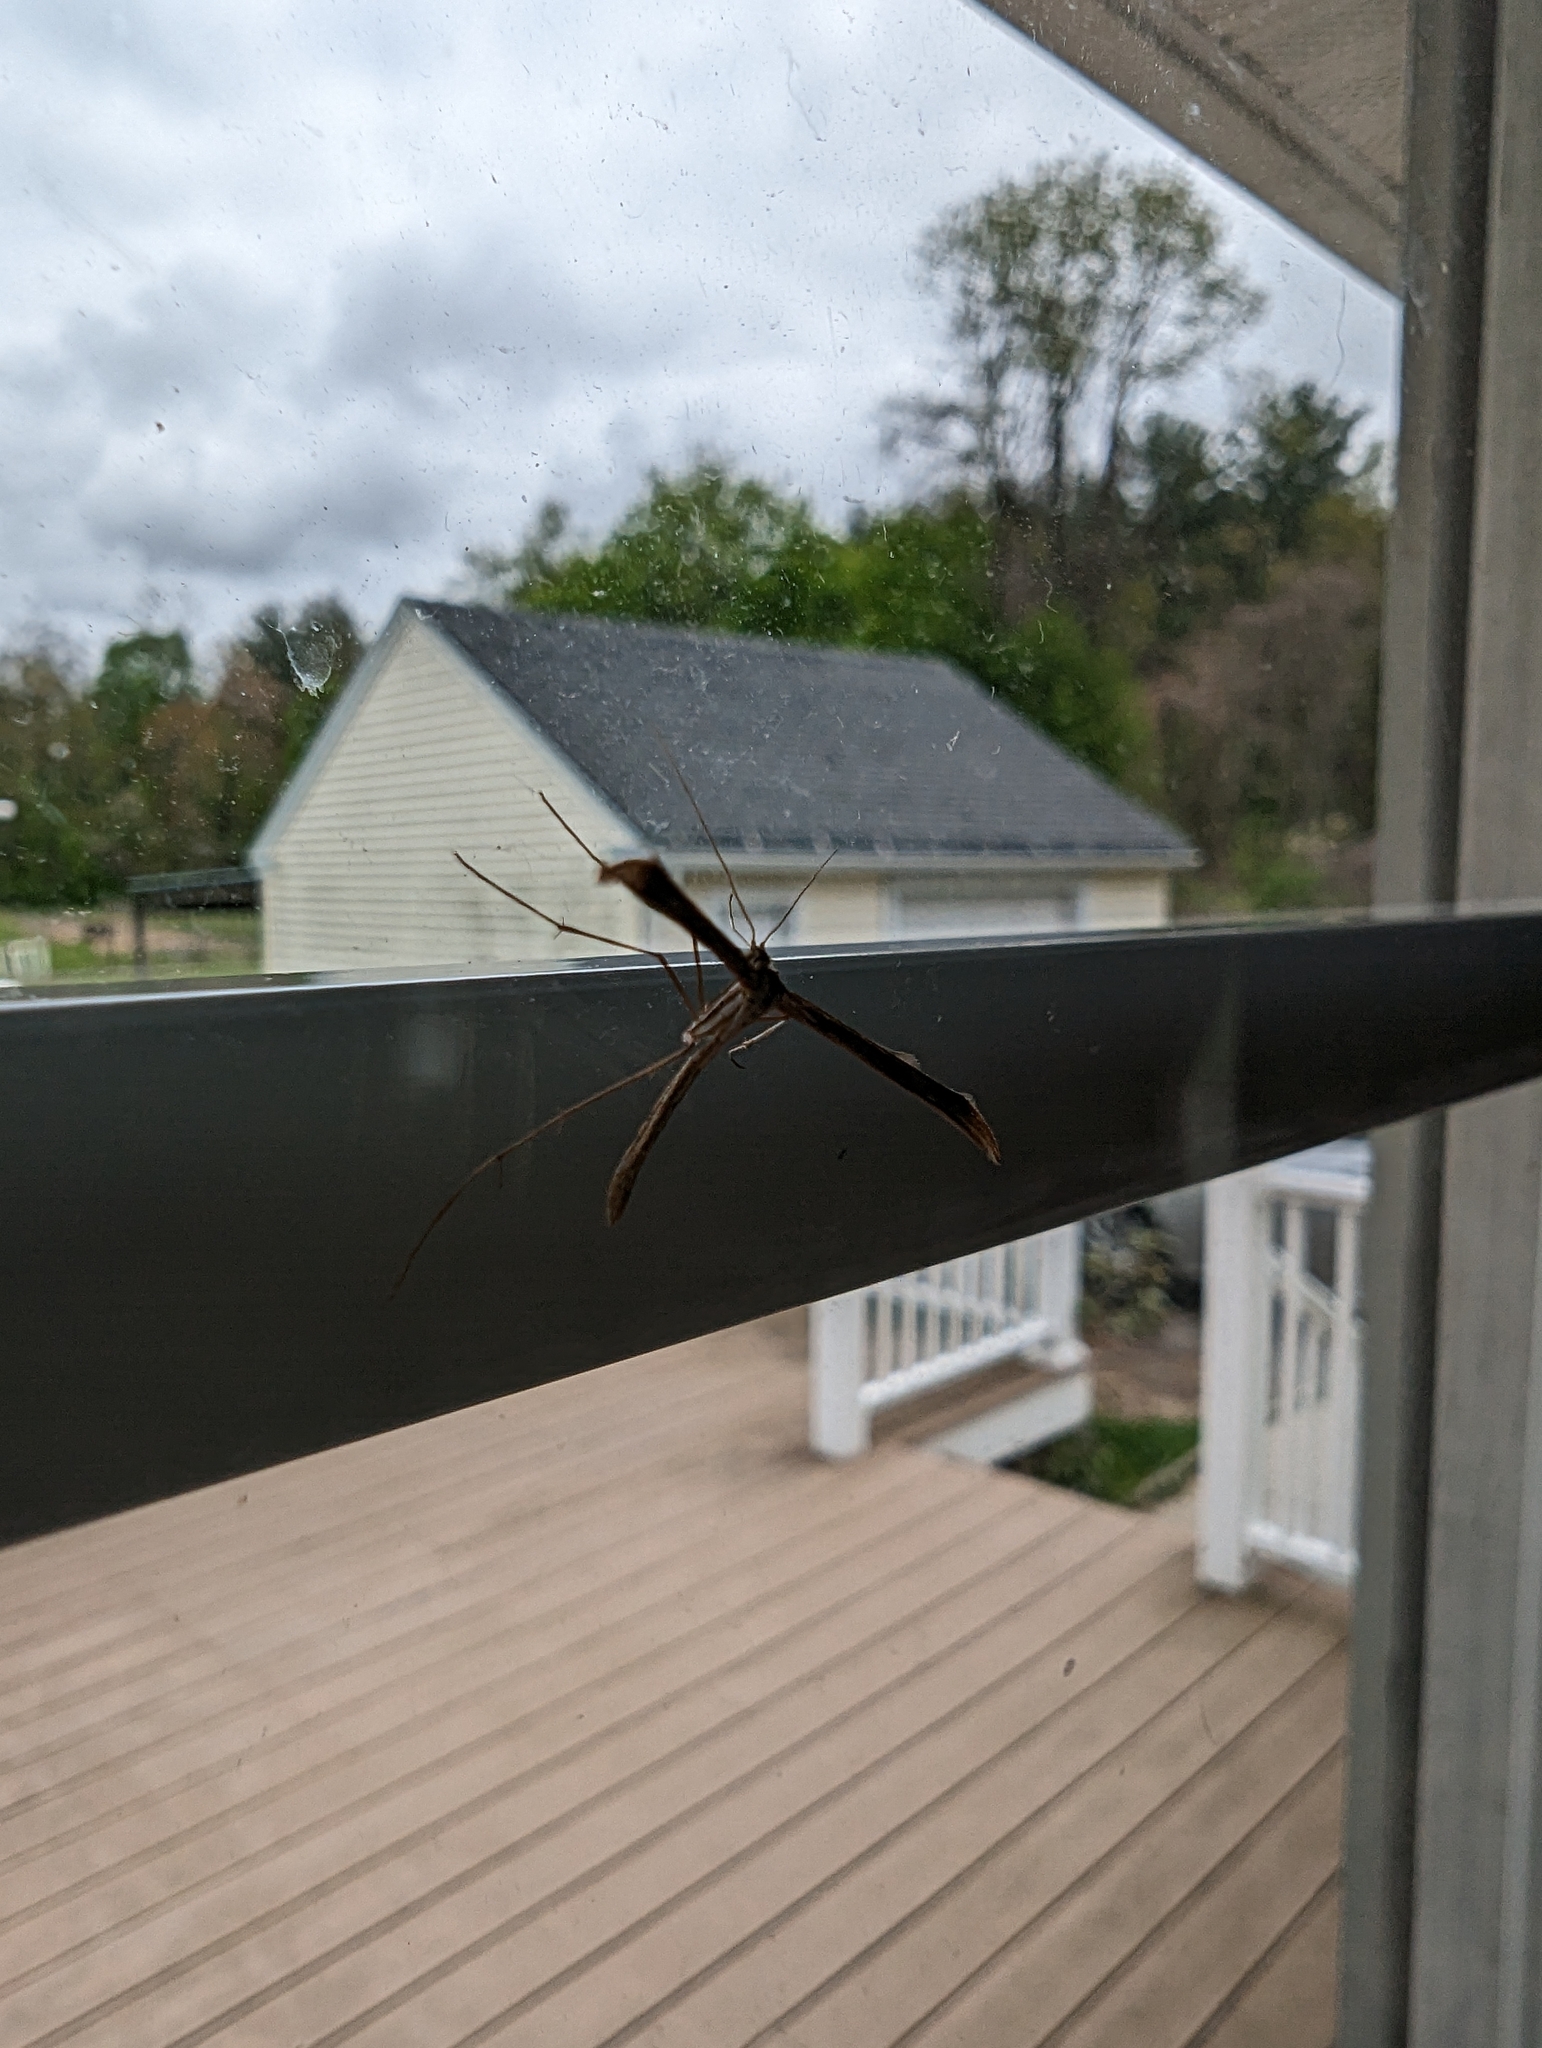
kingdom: Animalia
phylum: Arthropoda
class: Insecta
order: Lepidoptera
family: Pterophoridae
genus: Emmelina
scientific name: Emmelina monodactyla
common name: Common plume
